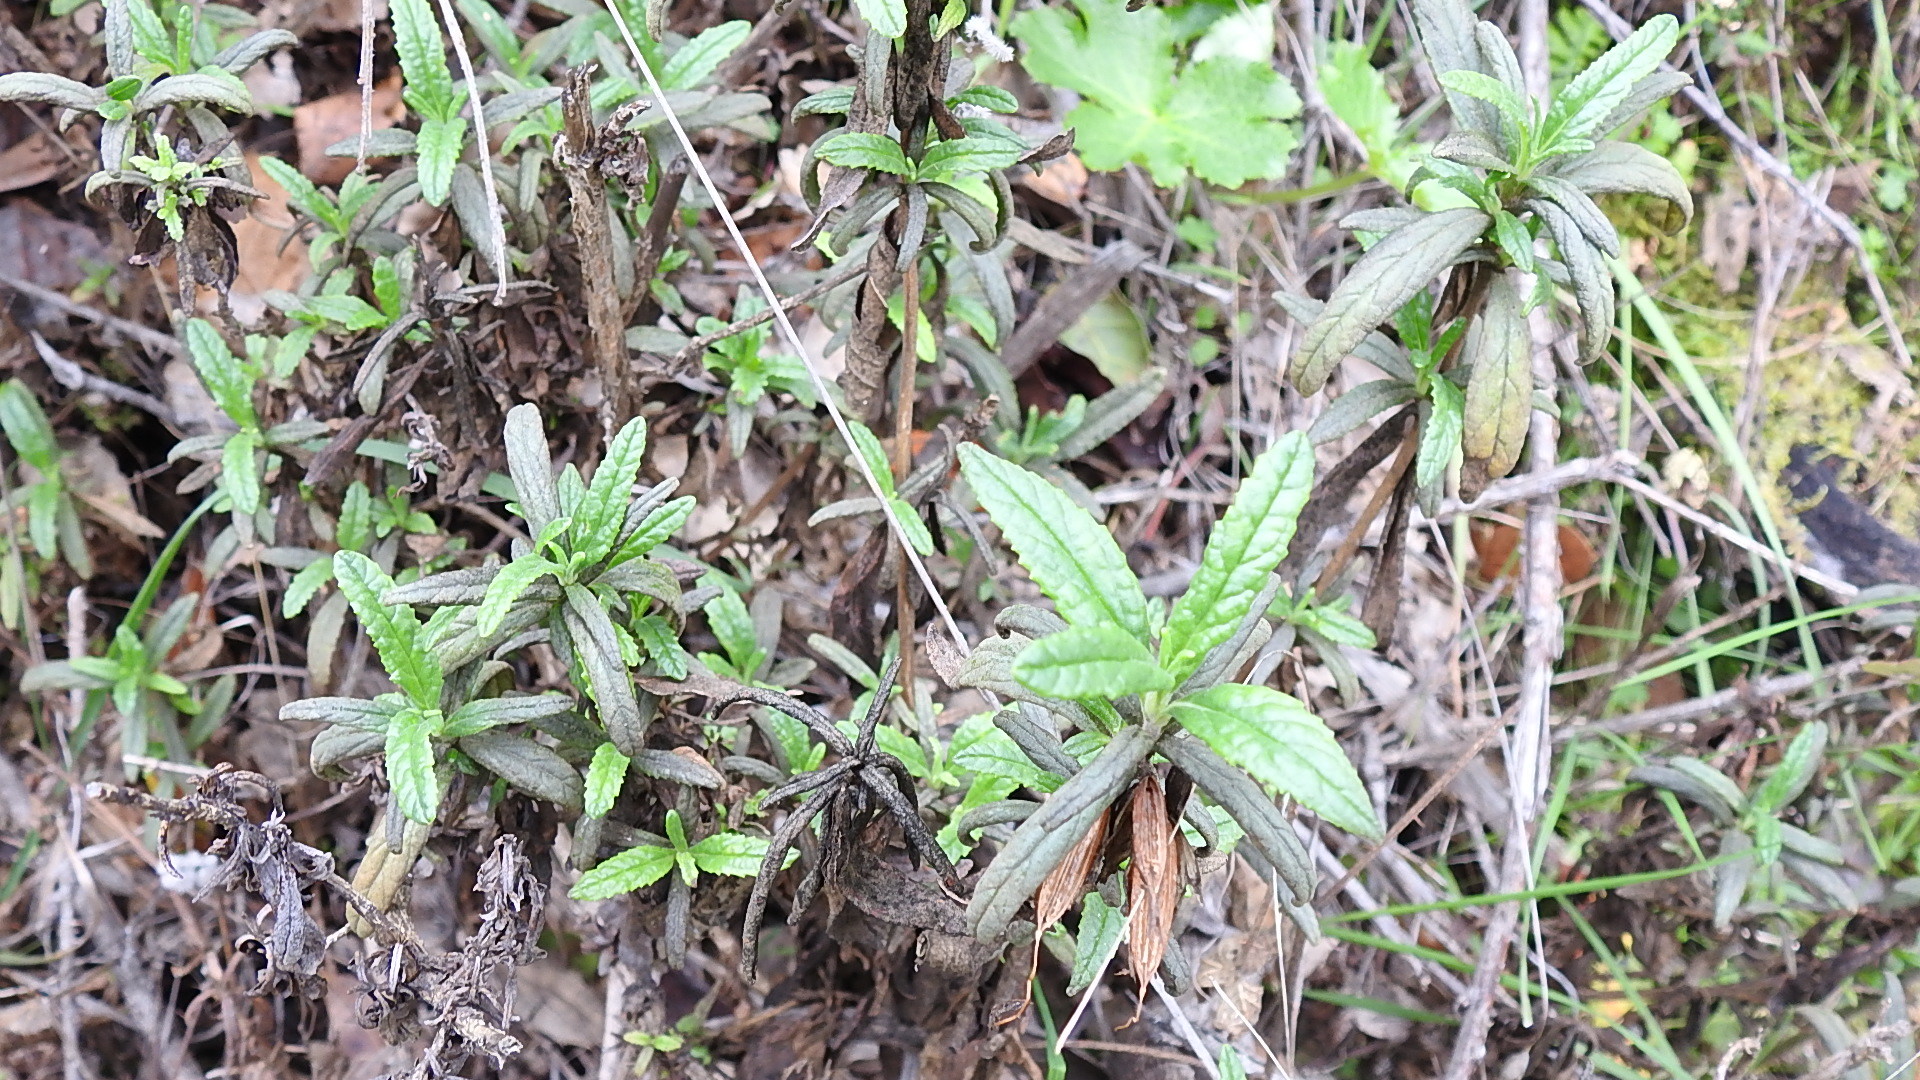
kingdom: Plantae
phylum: Tracheophyta
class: Magnoliopsida
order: Lamiales
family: Phrymaceae
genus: Diplacus
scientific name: Diplacus aurantiacus
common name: Bush monkey-flower
